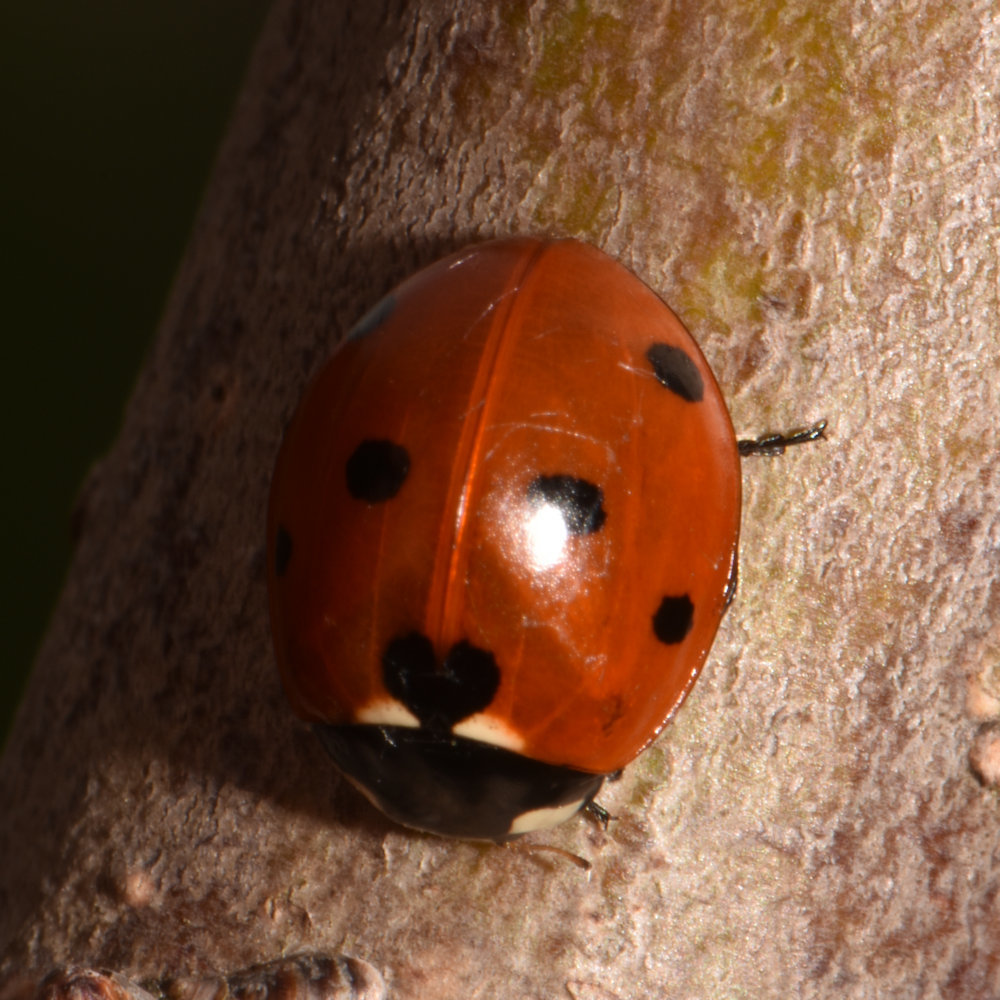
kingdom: Animalia
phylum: Arthropoda
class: Insecta
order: Coleoptera
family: Coccinellidae
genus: Coccinella
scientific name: Coccinella septempunctata
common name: Sevenspotted lady beetle
